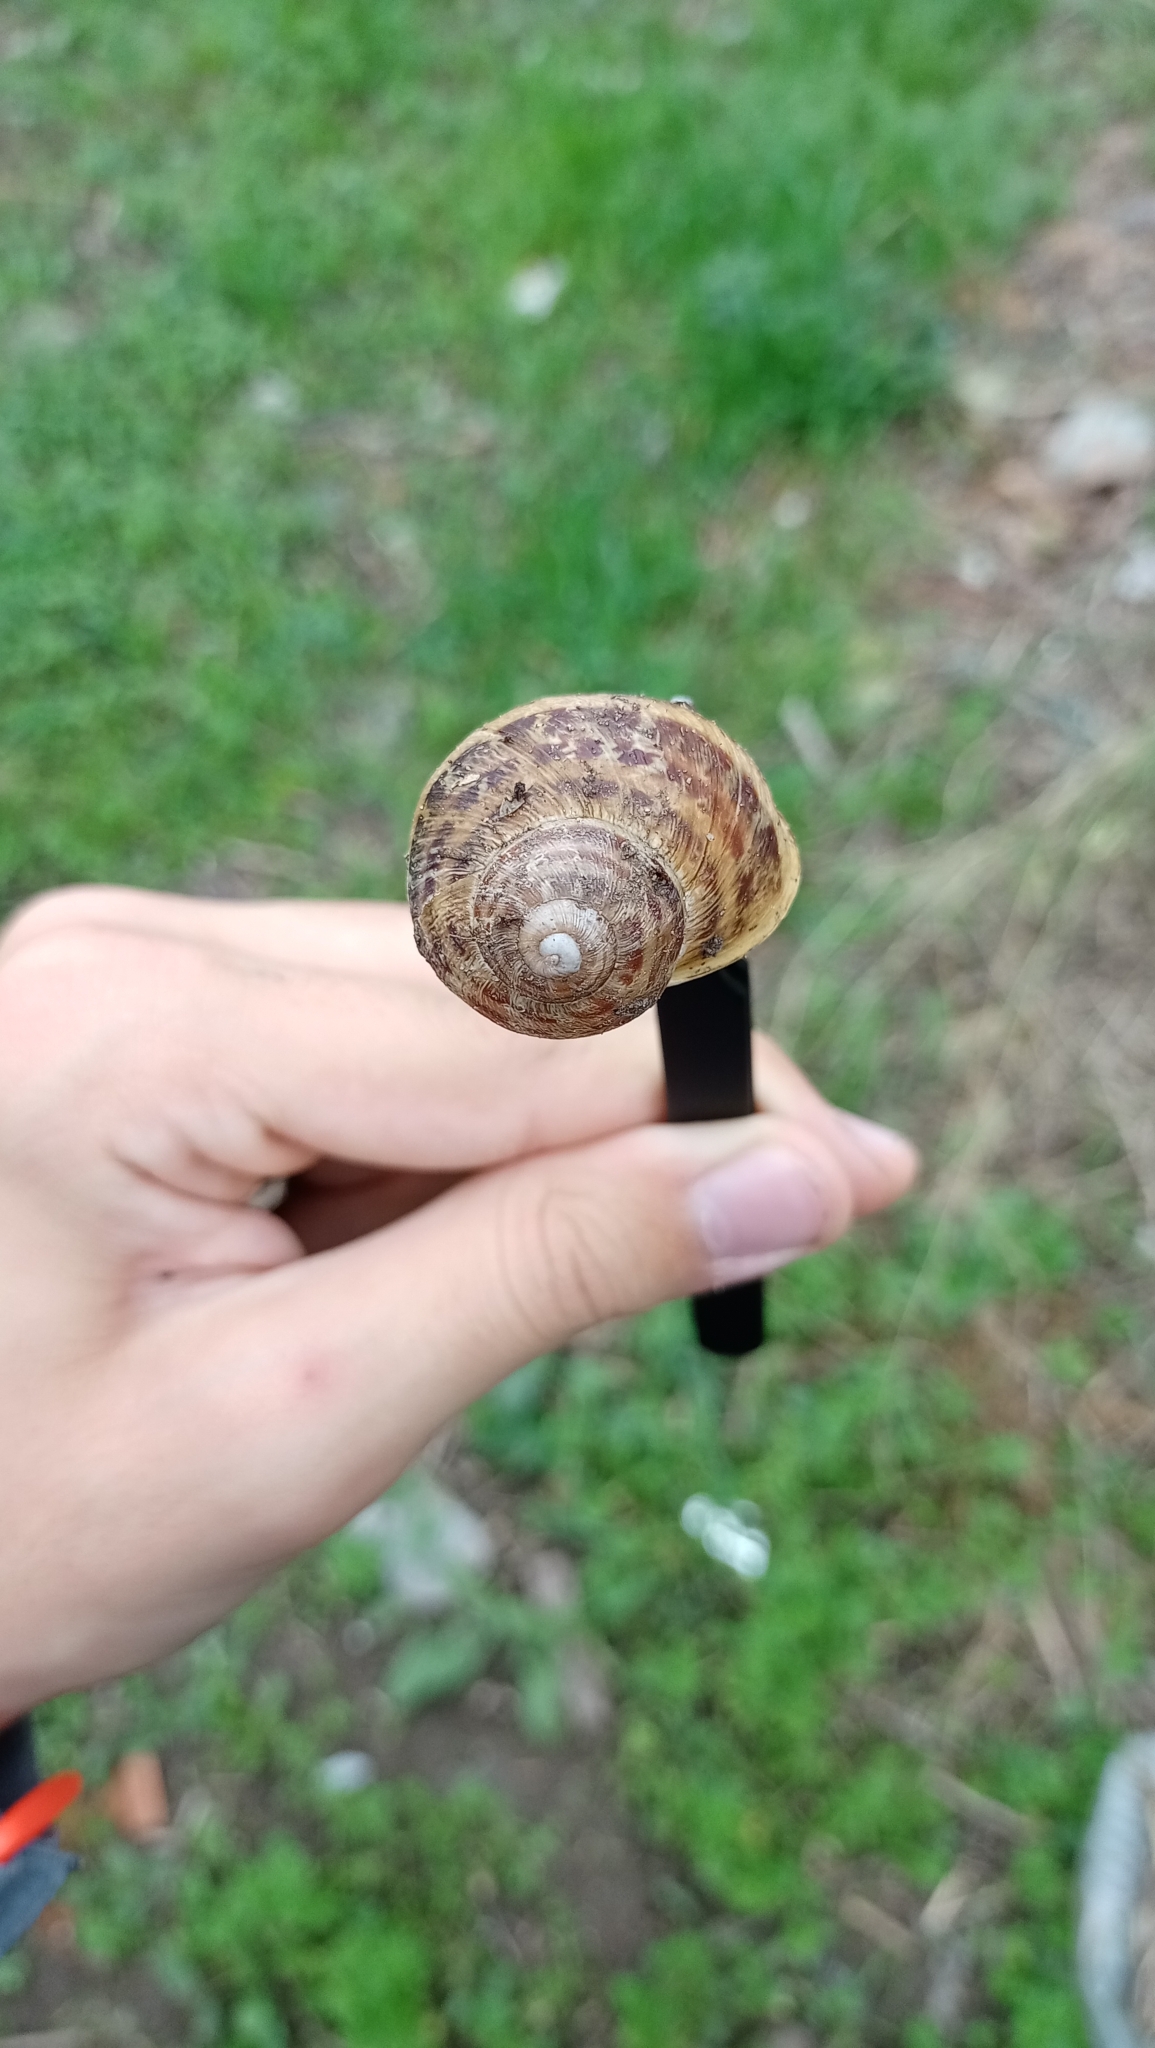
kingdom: Animalia
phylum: Mollusca
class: Gastropoda
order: Stylommatophora
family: Helicidae
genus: Cornu
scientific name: Cornu aspersum
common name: Brown garden snail
